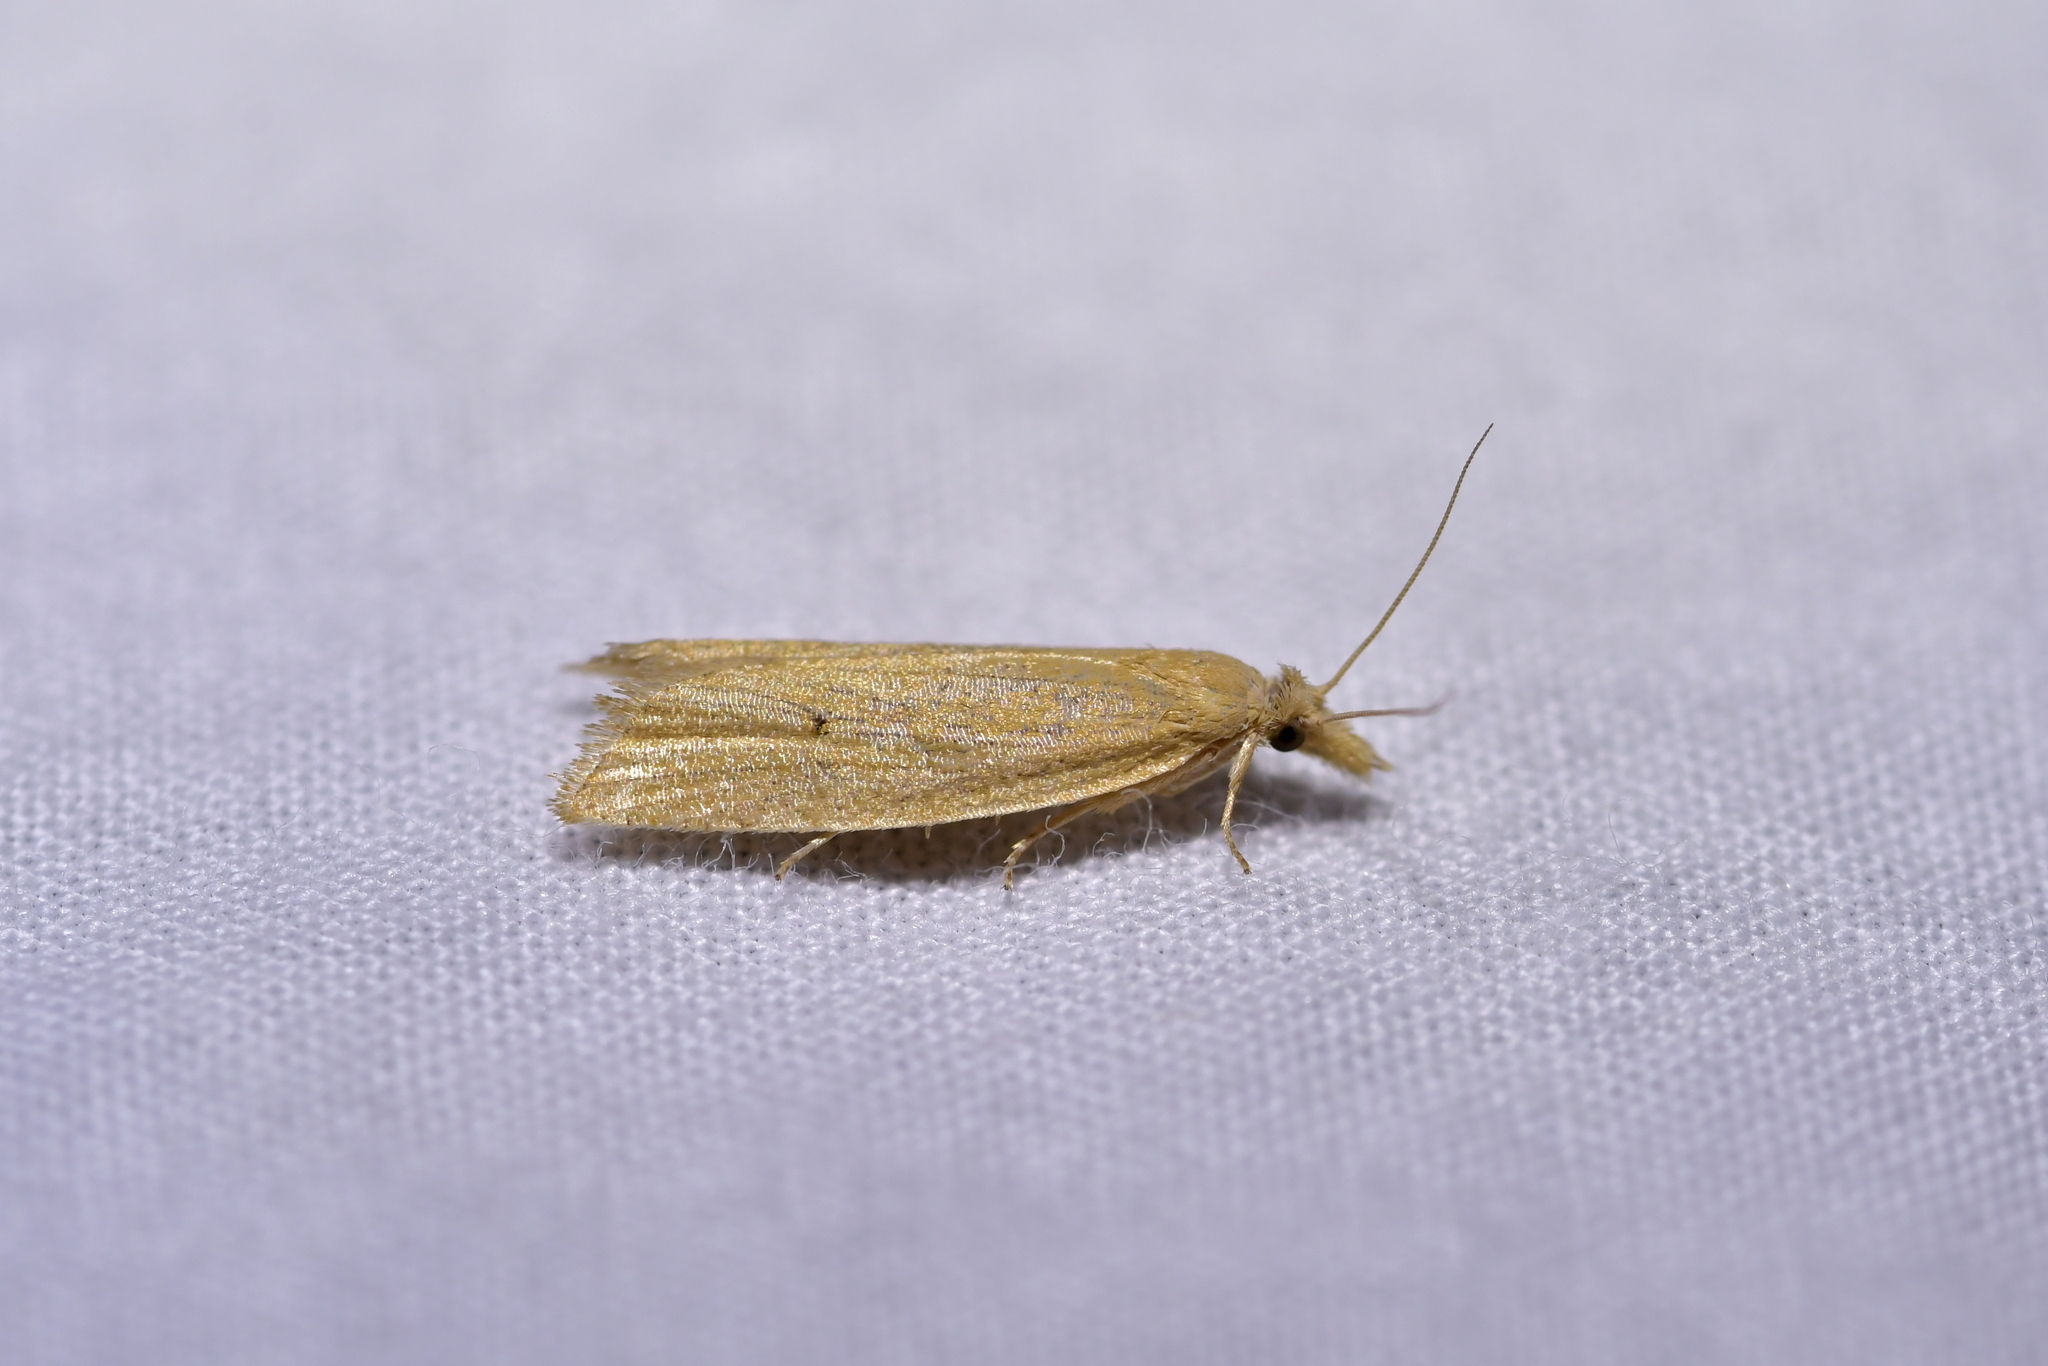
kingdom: Animalia
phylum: Arthropoda
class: Insecta
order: Lepidoptera
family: Tortricidae
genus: Bactra
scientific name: Bactra noteraula
